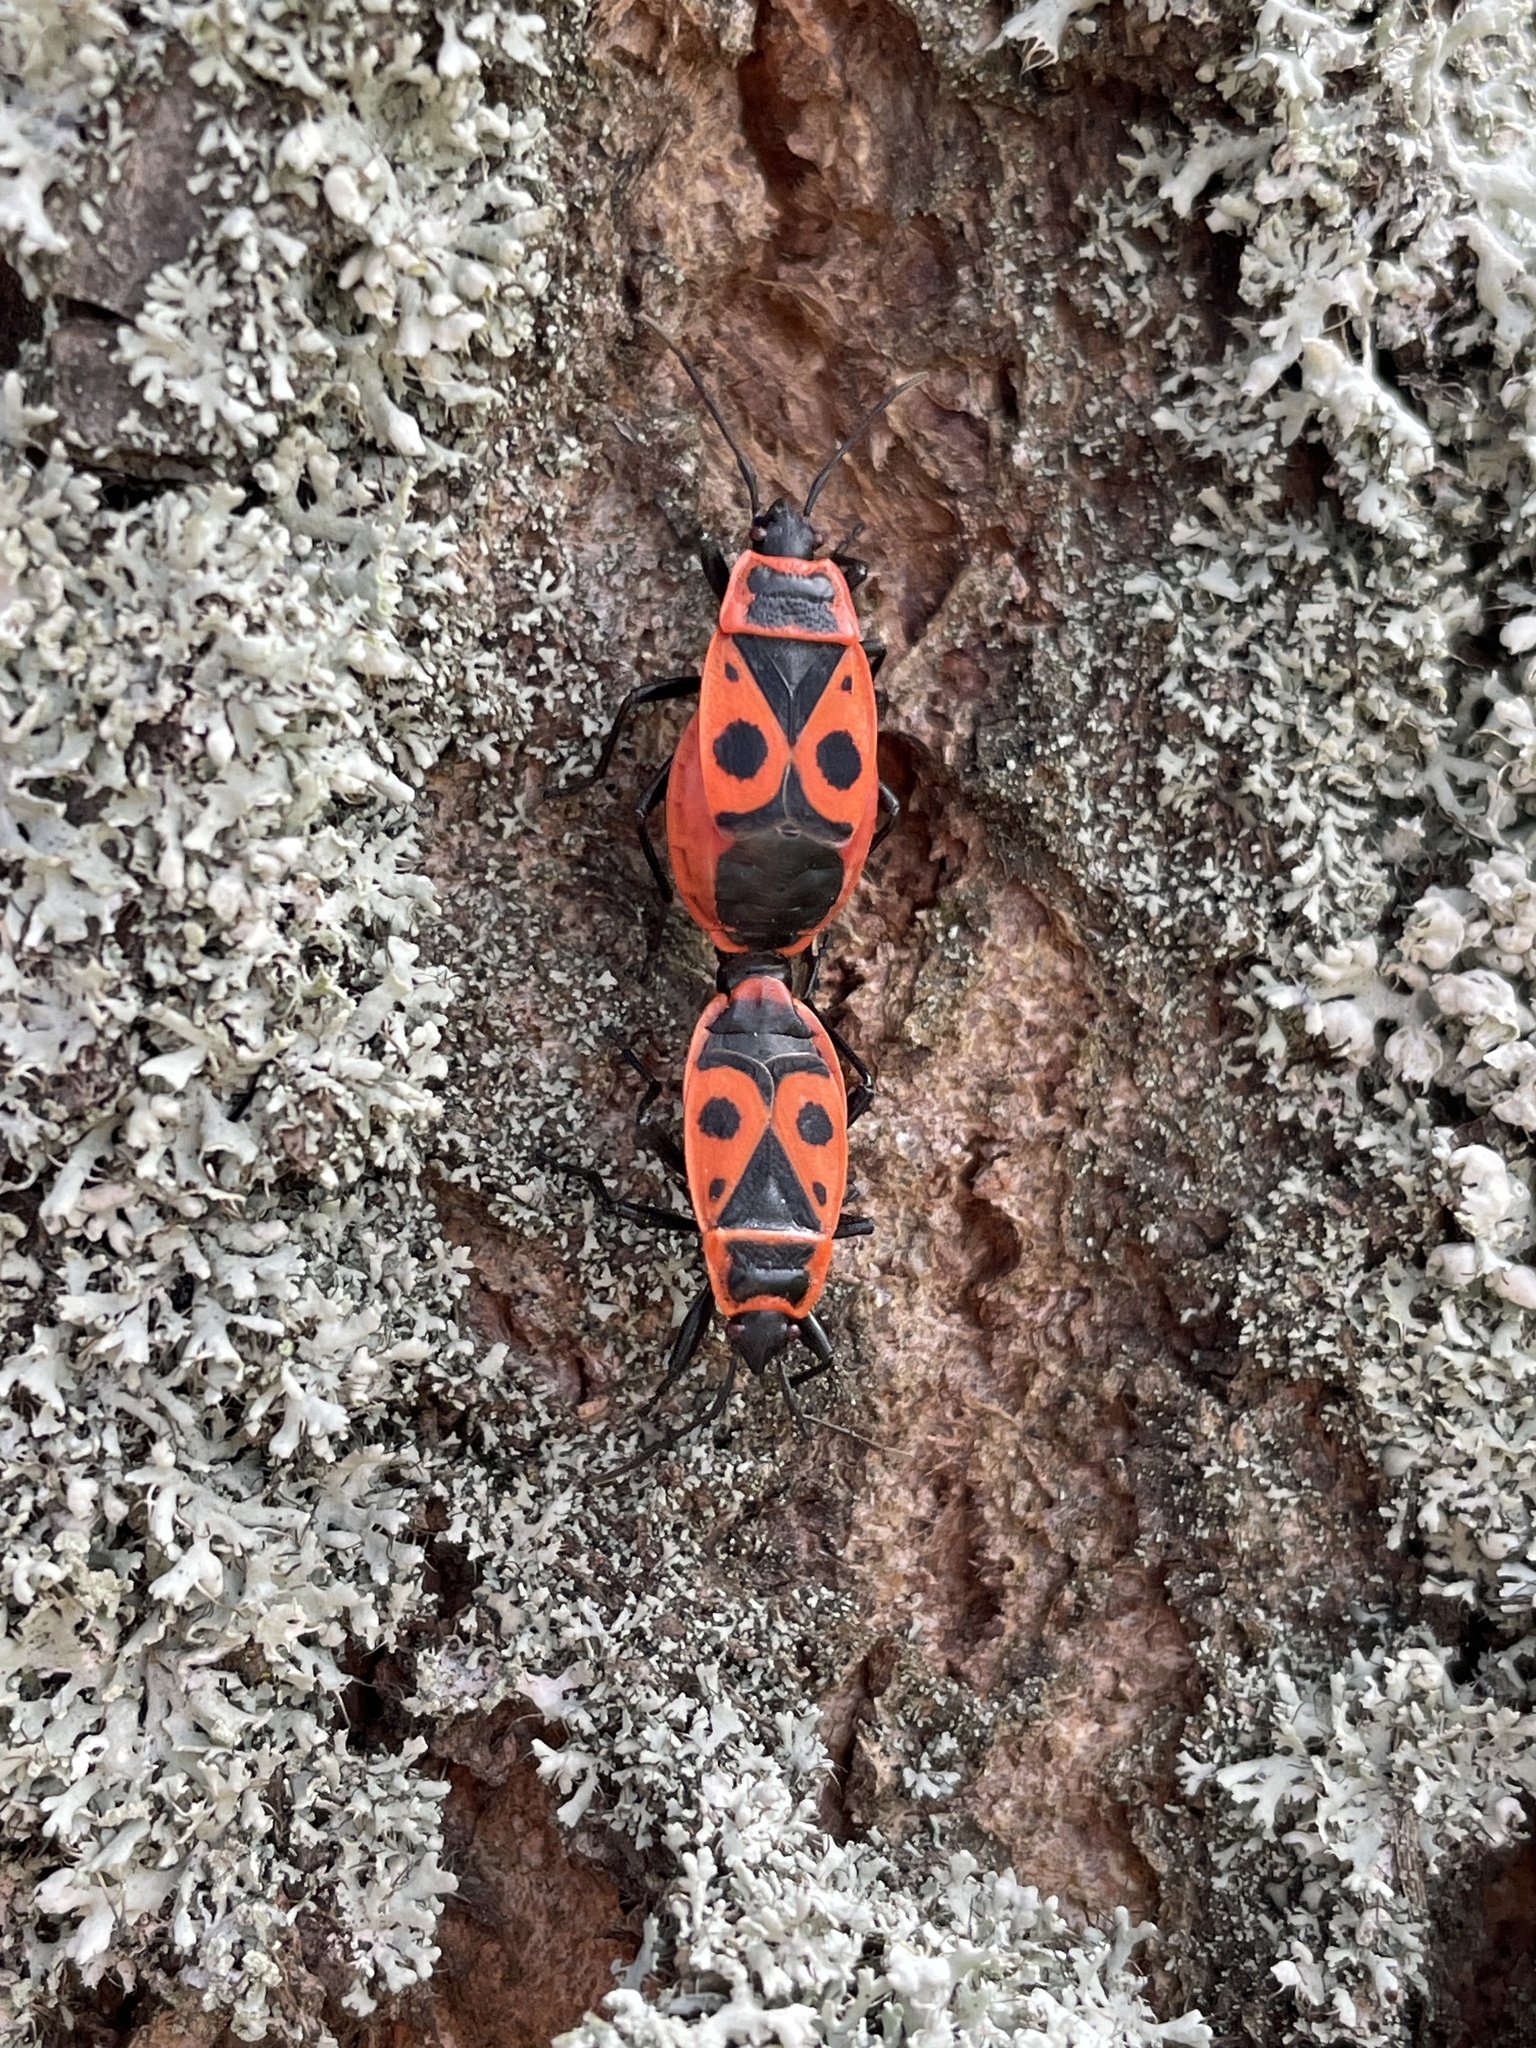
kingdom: Animalia
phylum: Arthropoda
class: Insecta
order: Hemiptera
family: Pyrrhocoridae
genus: Pyrrhocoris
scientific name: Pyrrhocoris apterus
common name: Firebug
